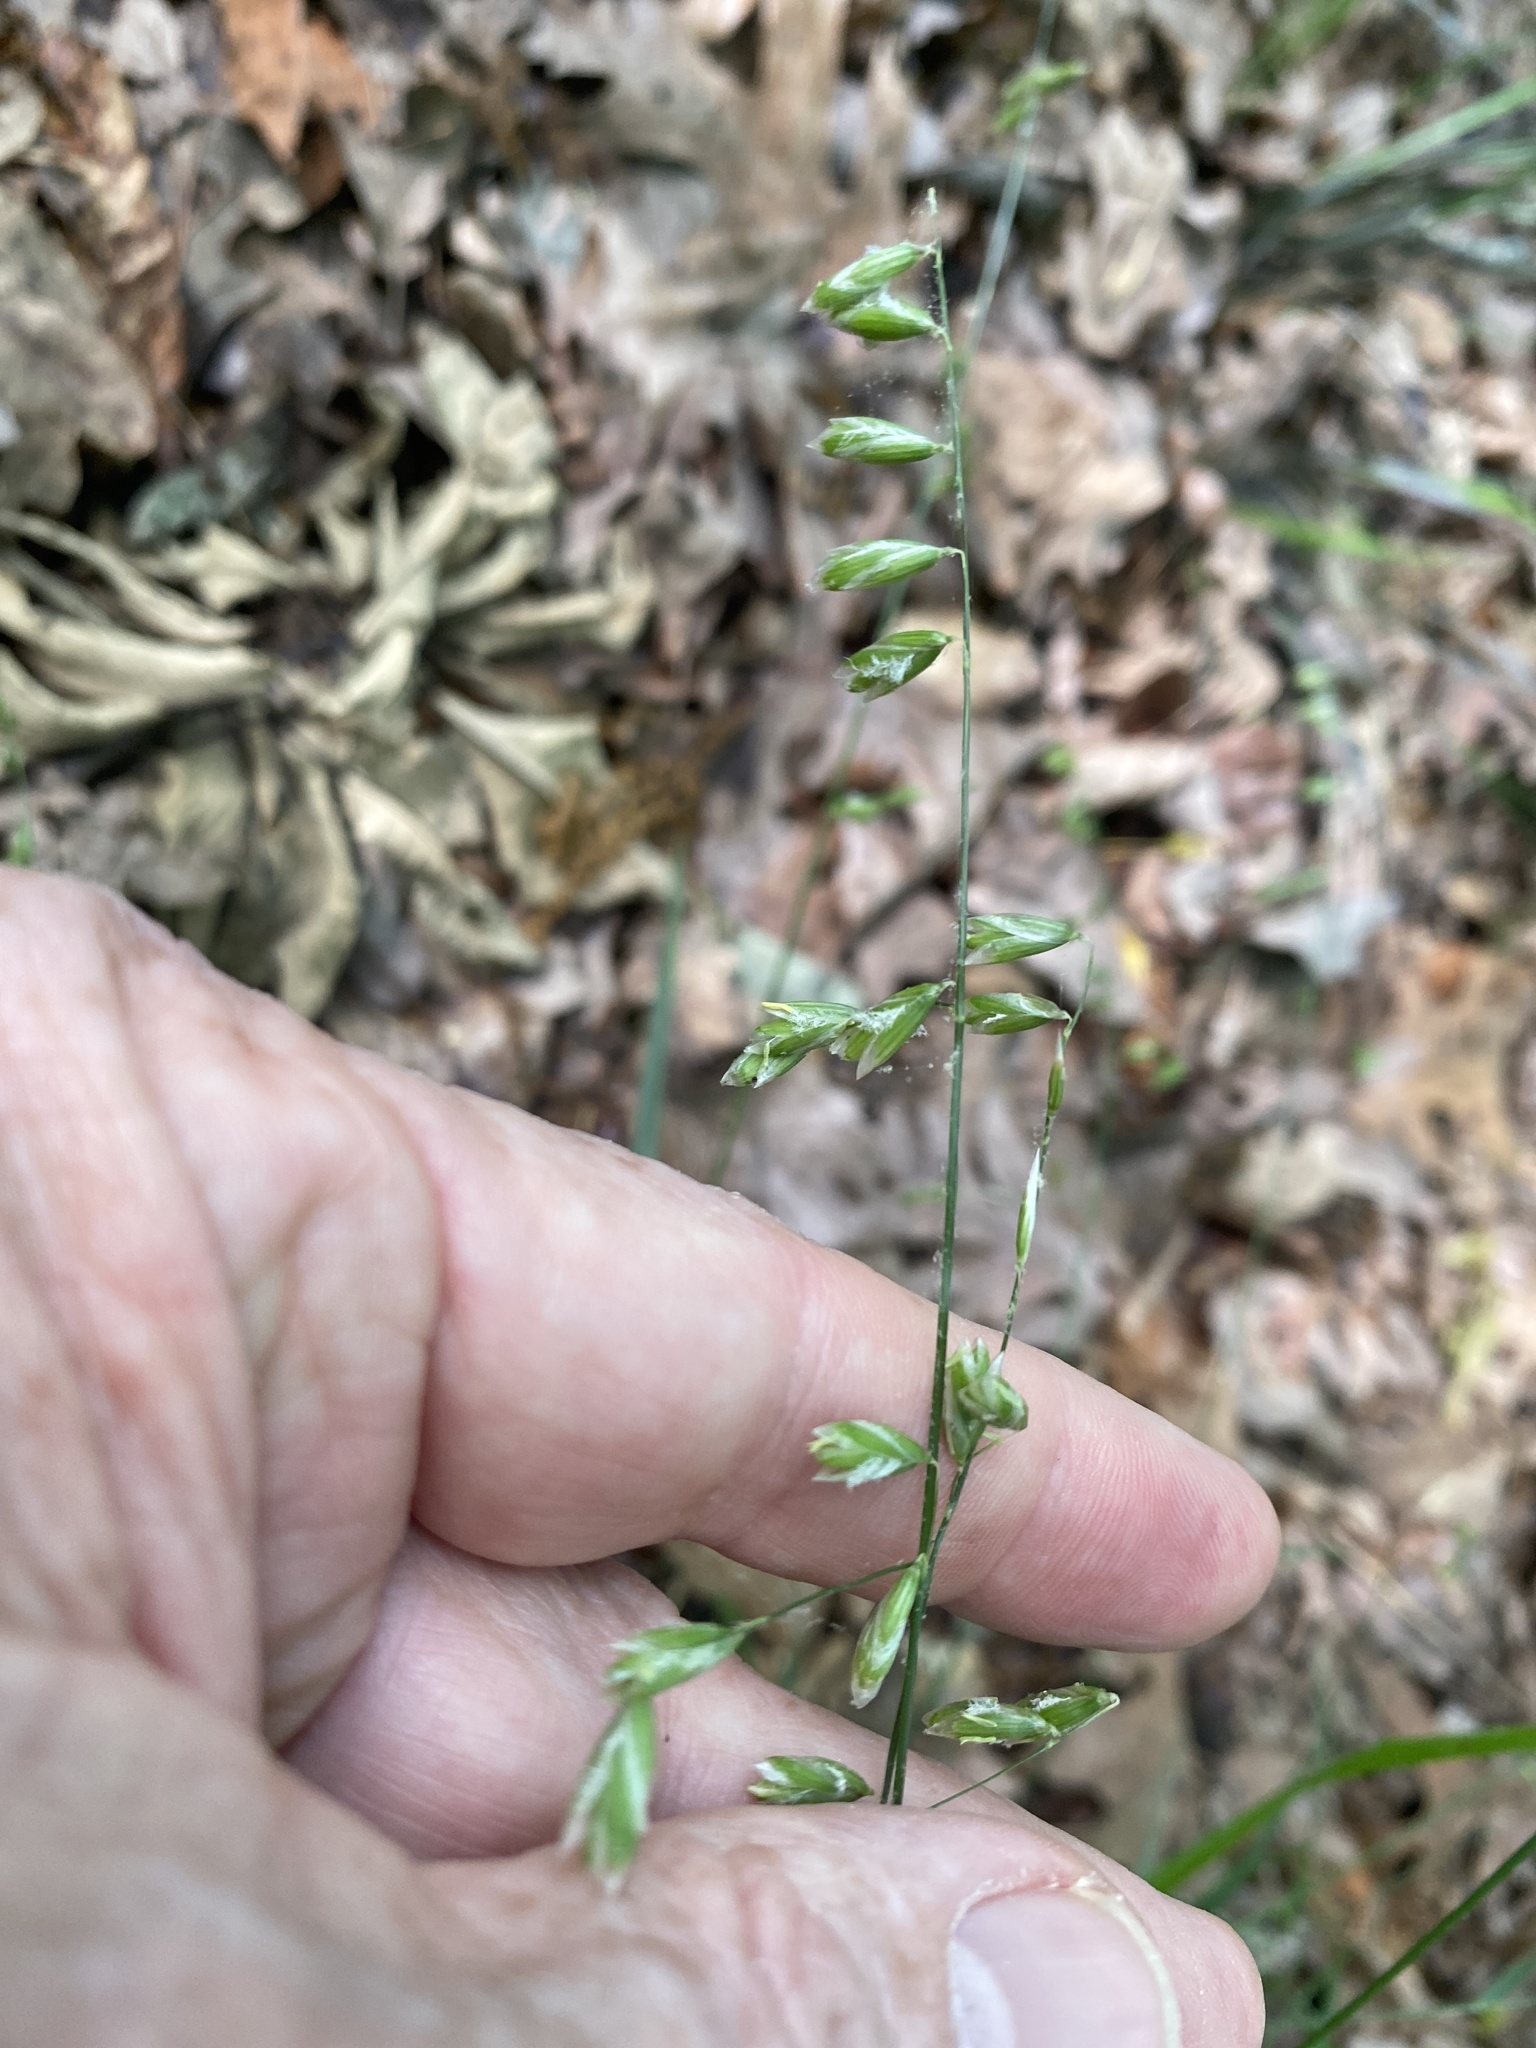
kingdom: Plantae
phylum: Tracheophyta
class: Liliopsida
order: Poales
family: Poaceae
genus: Melica
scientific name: Melica mutica
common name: Two-flower melic
